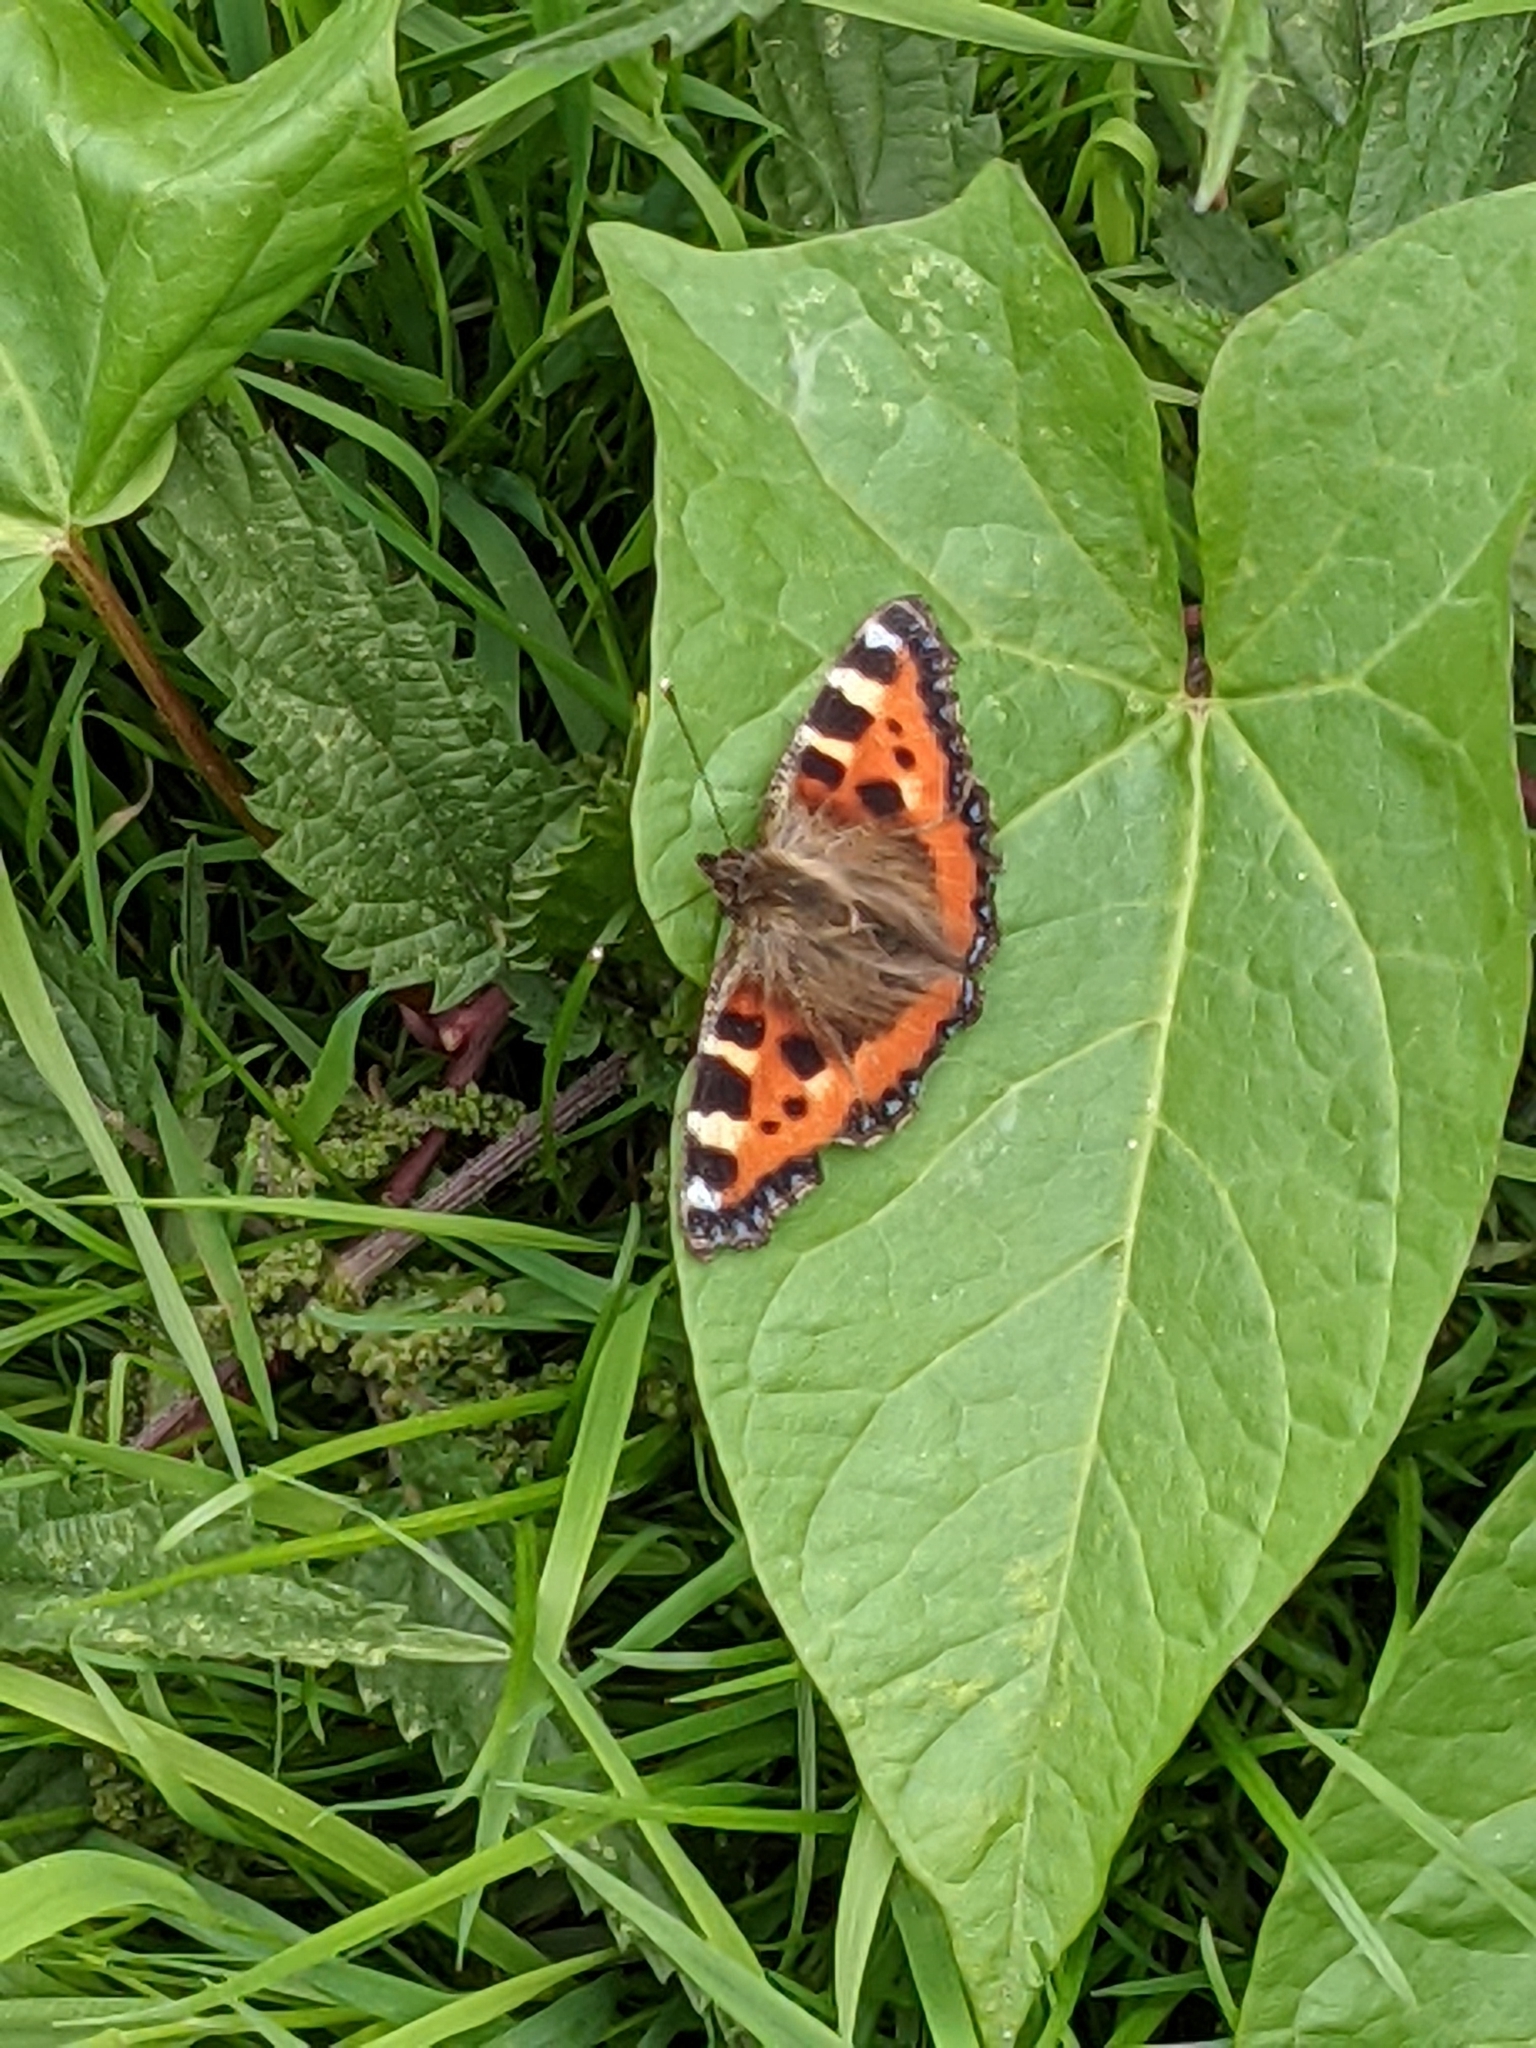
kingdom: Animalia
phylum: Arthropoda
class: Insecta
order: Lepidoptera
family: Nymphalidae
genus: Aglais
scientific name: Aglais urticae
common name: Small tortoiseshell
